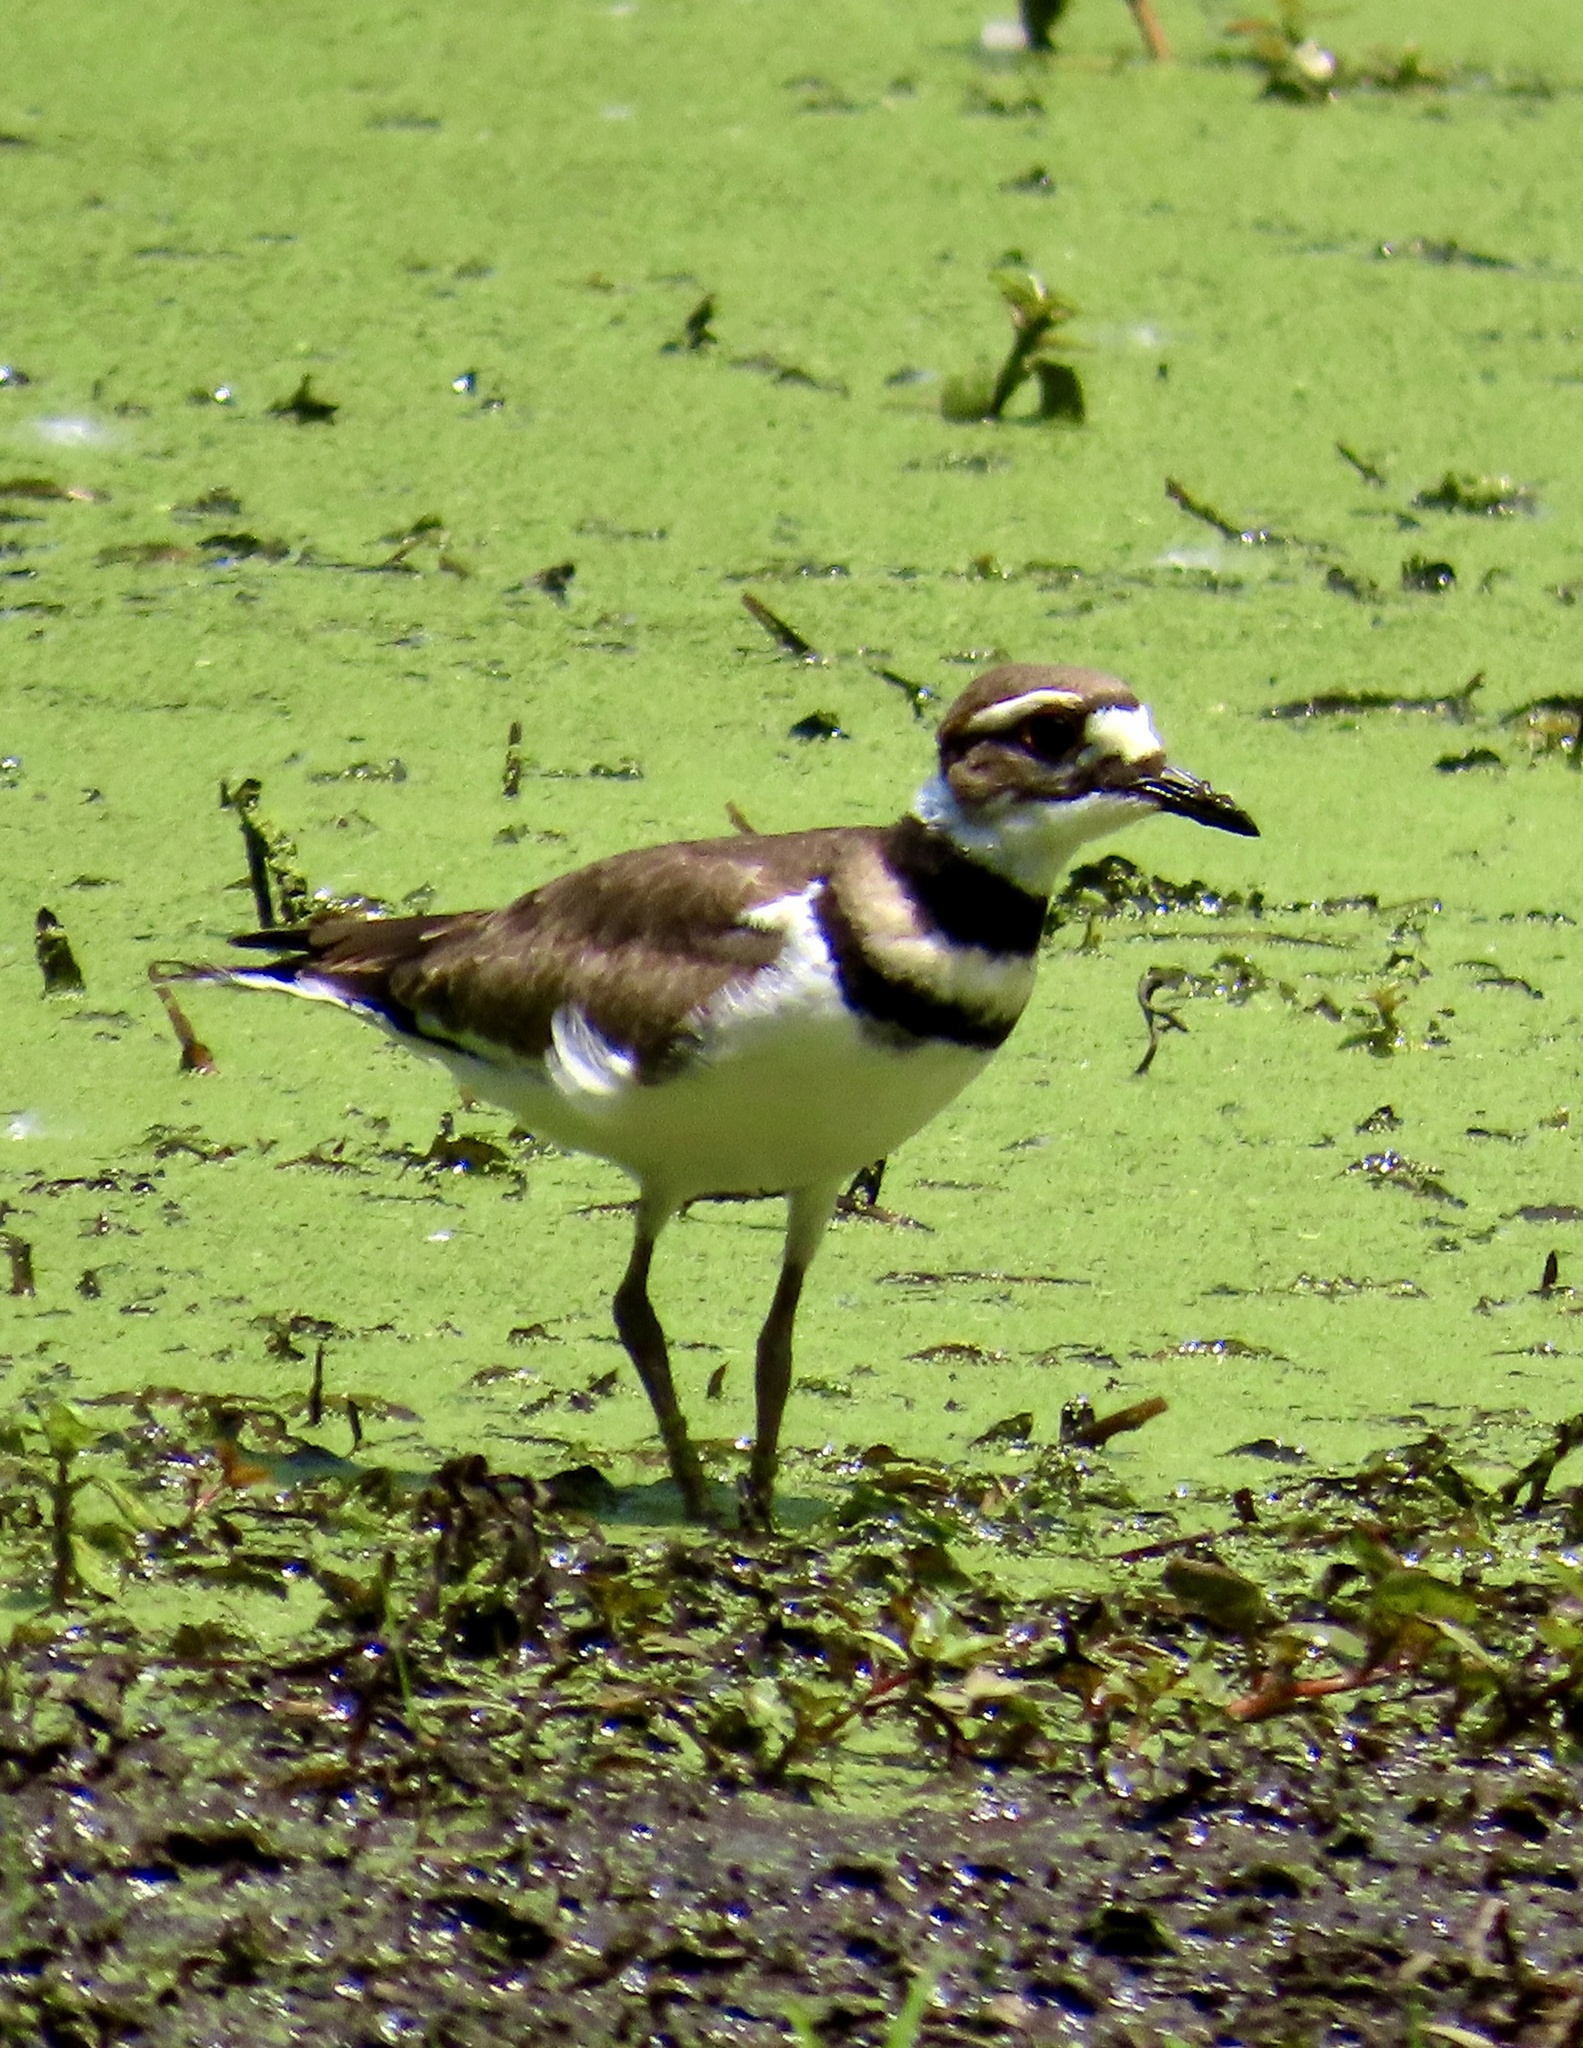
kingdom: Animalia
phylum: Chordata
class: Aves
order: Charadriiformes
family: Charadriidae
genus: Charadrius
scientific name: Charadrius vociferus
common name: Killdeer
